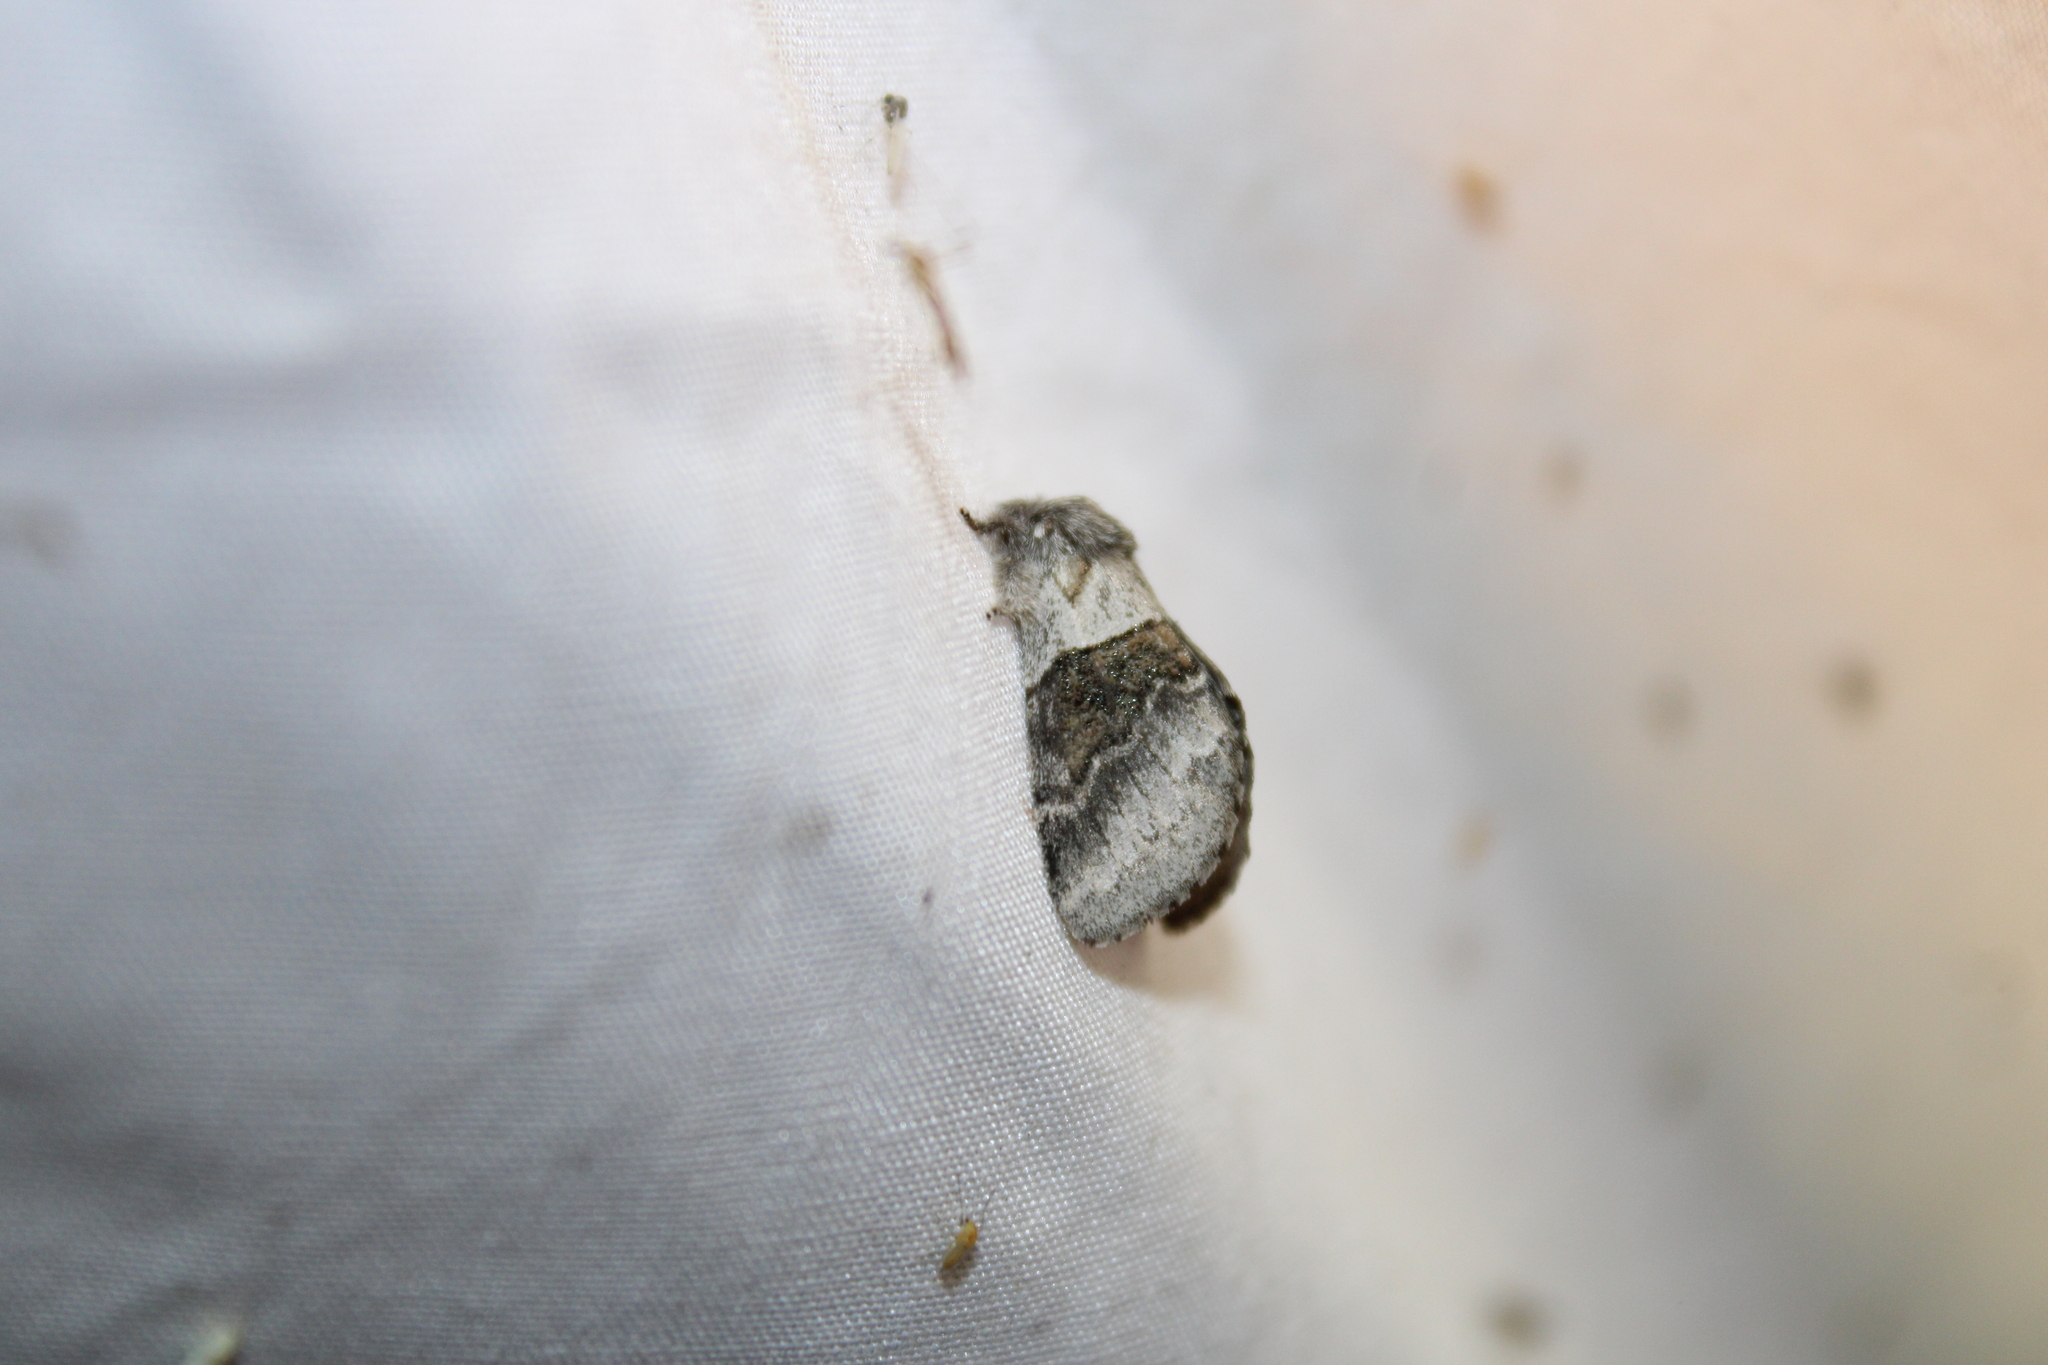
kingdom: Animalia
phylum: Arthropoda
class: Insecta
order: Lepidoptera
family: Notodontidae
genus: Gluphisia
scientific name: Gluphisia septentrionis
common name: Common gluphisia
